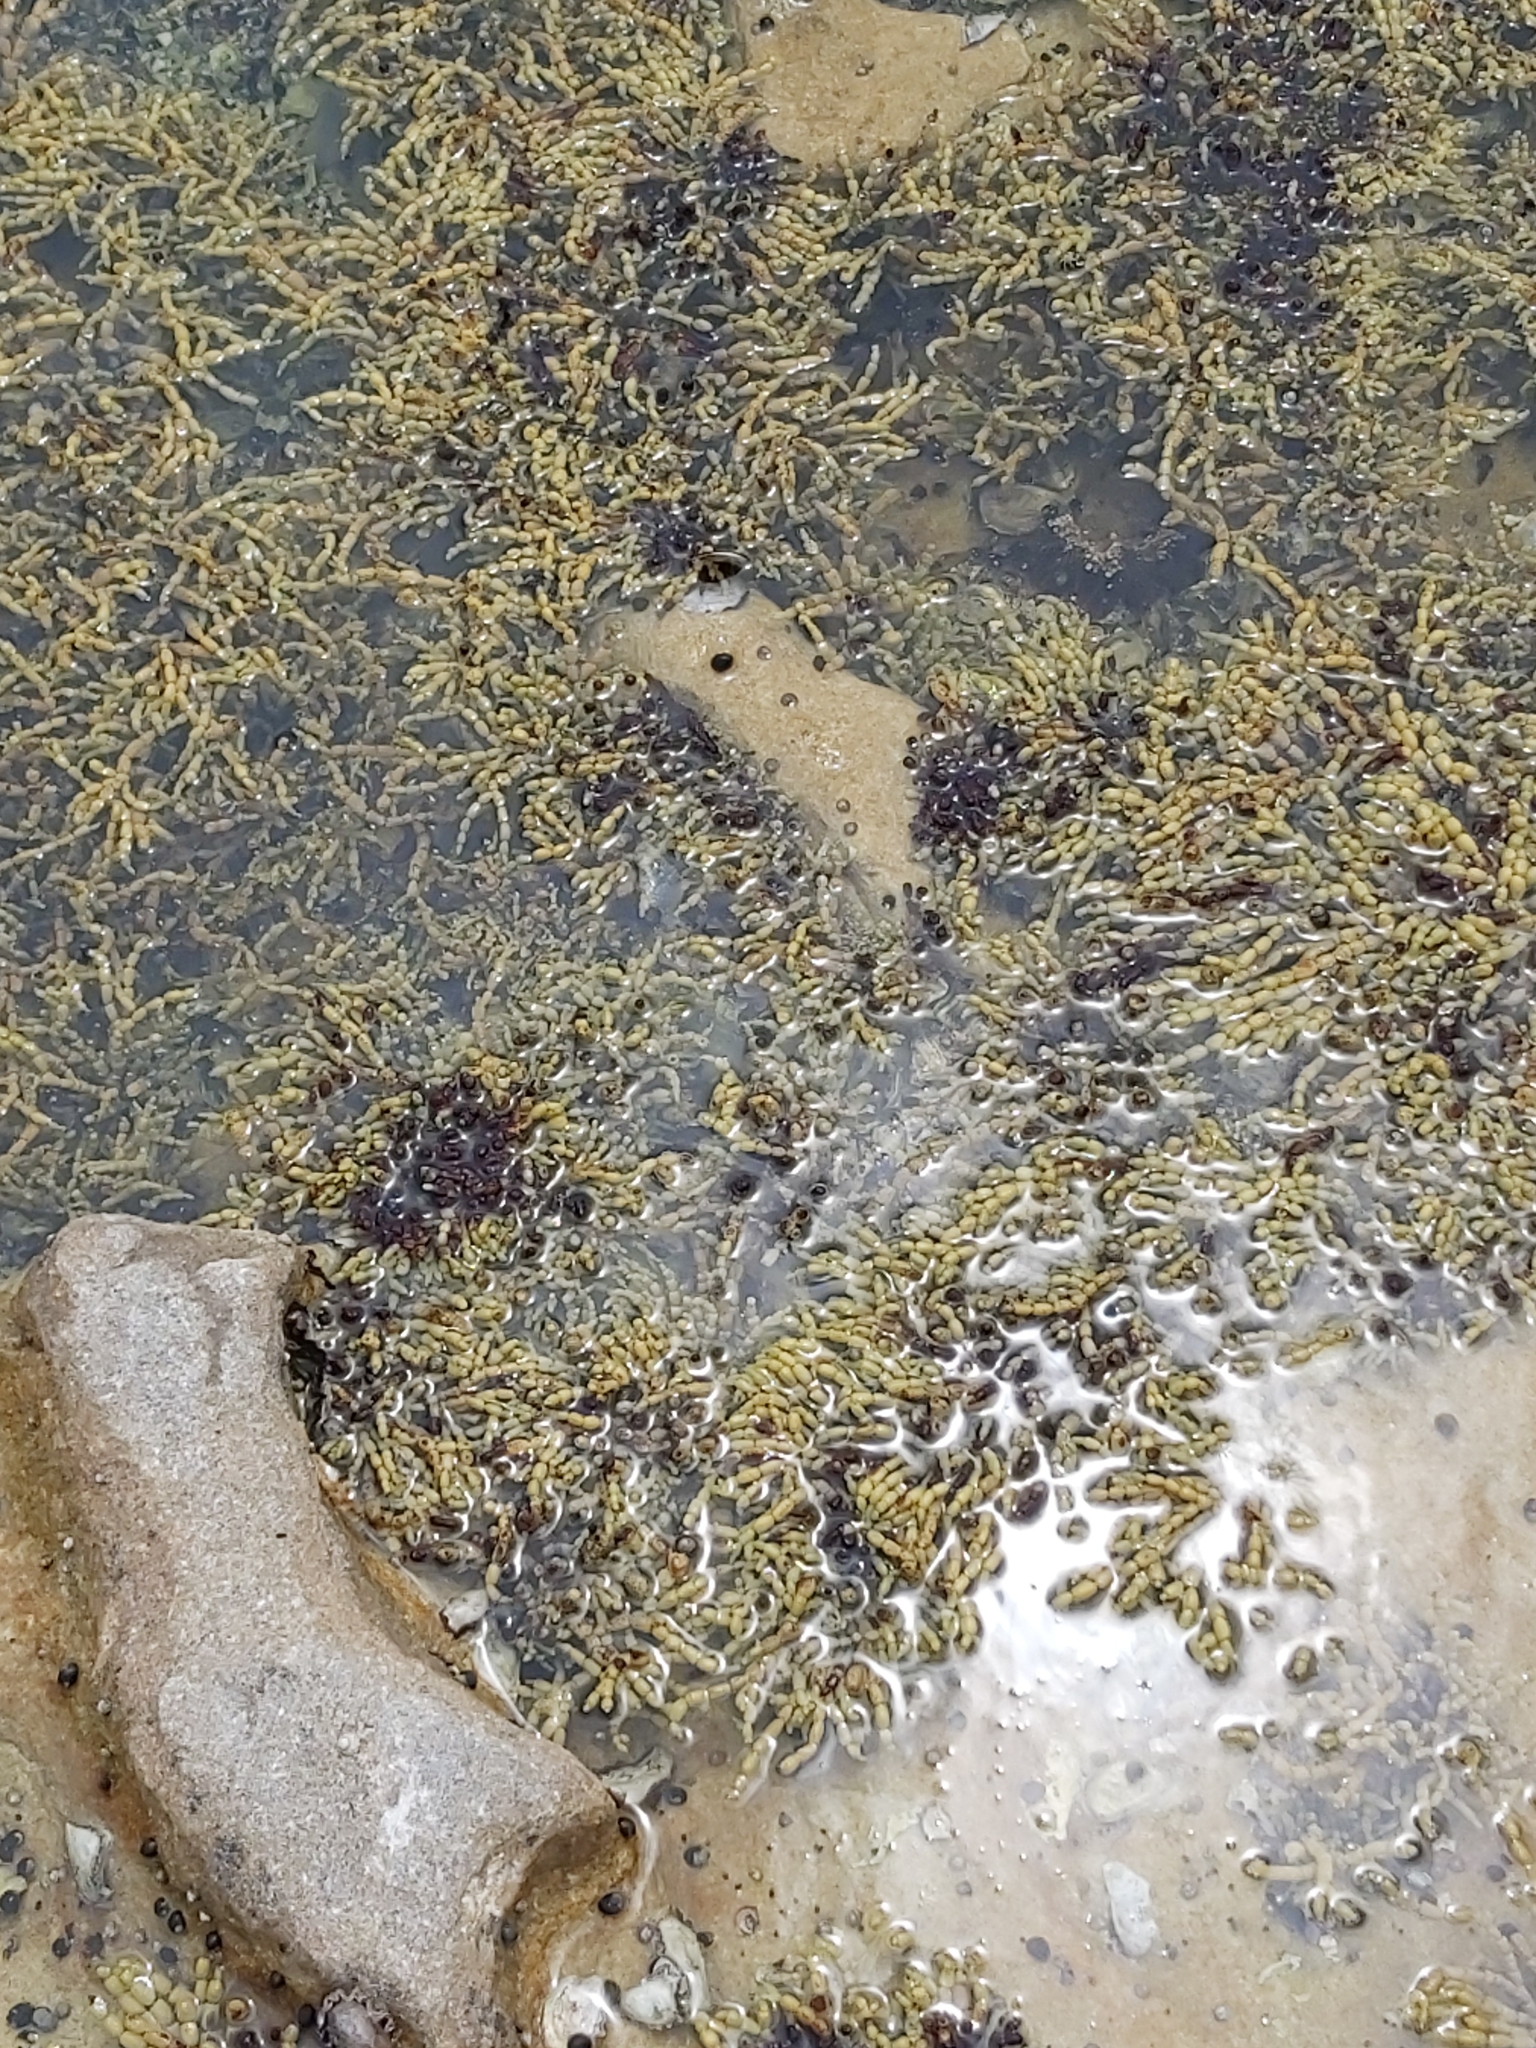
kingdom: Chromista
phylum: Ochrophyta
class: Phaeophyceae
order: Fucales
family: Hormosiraceae
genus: Hormosira
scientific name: Hormosira banksii
